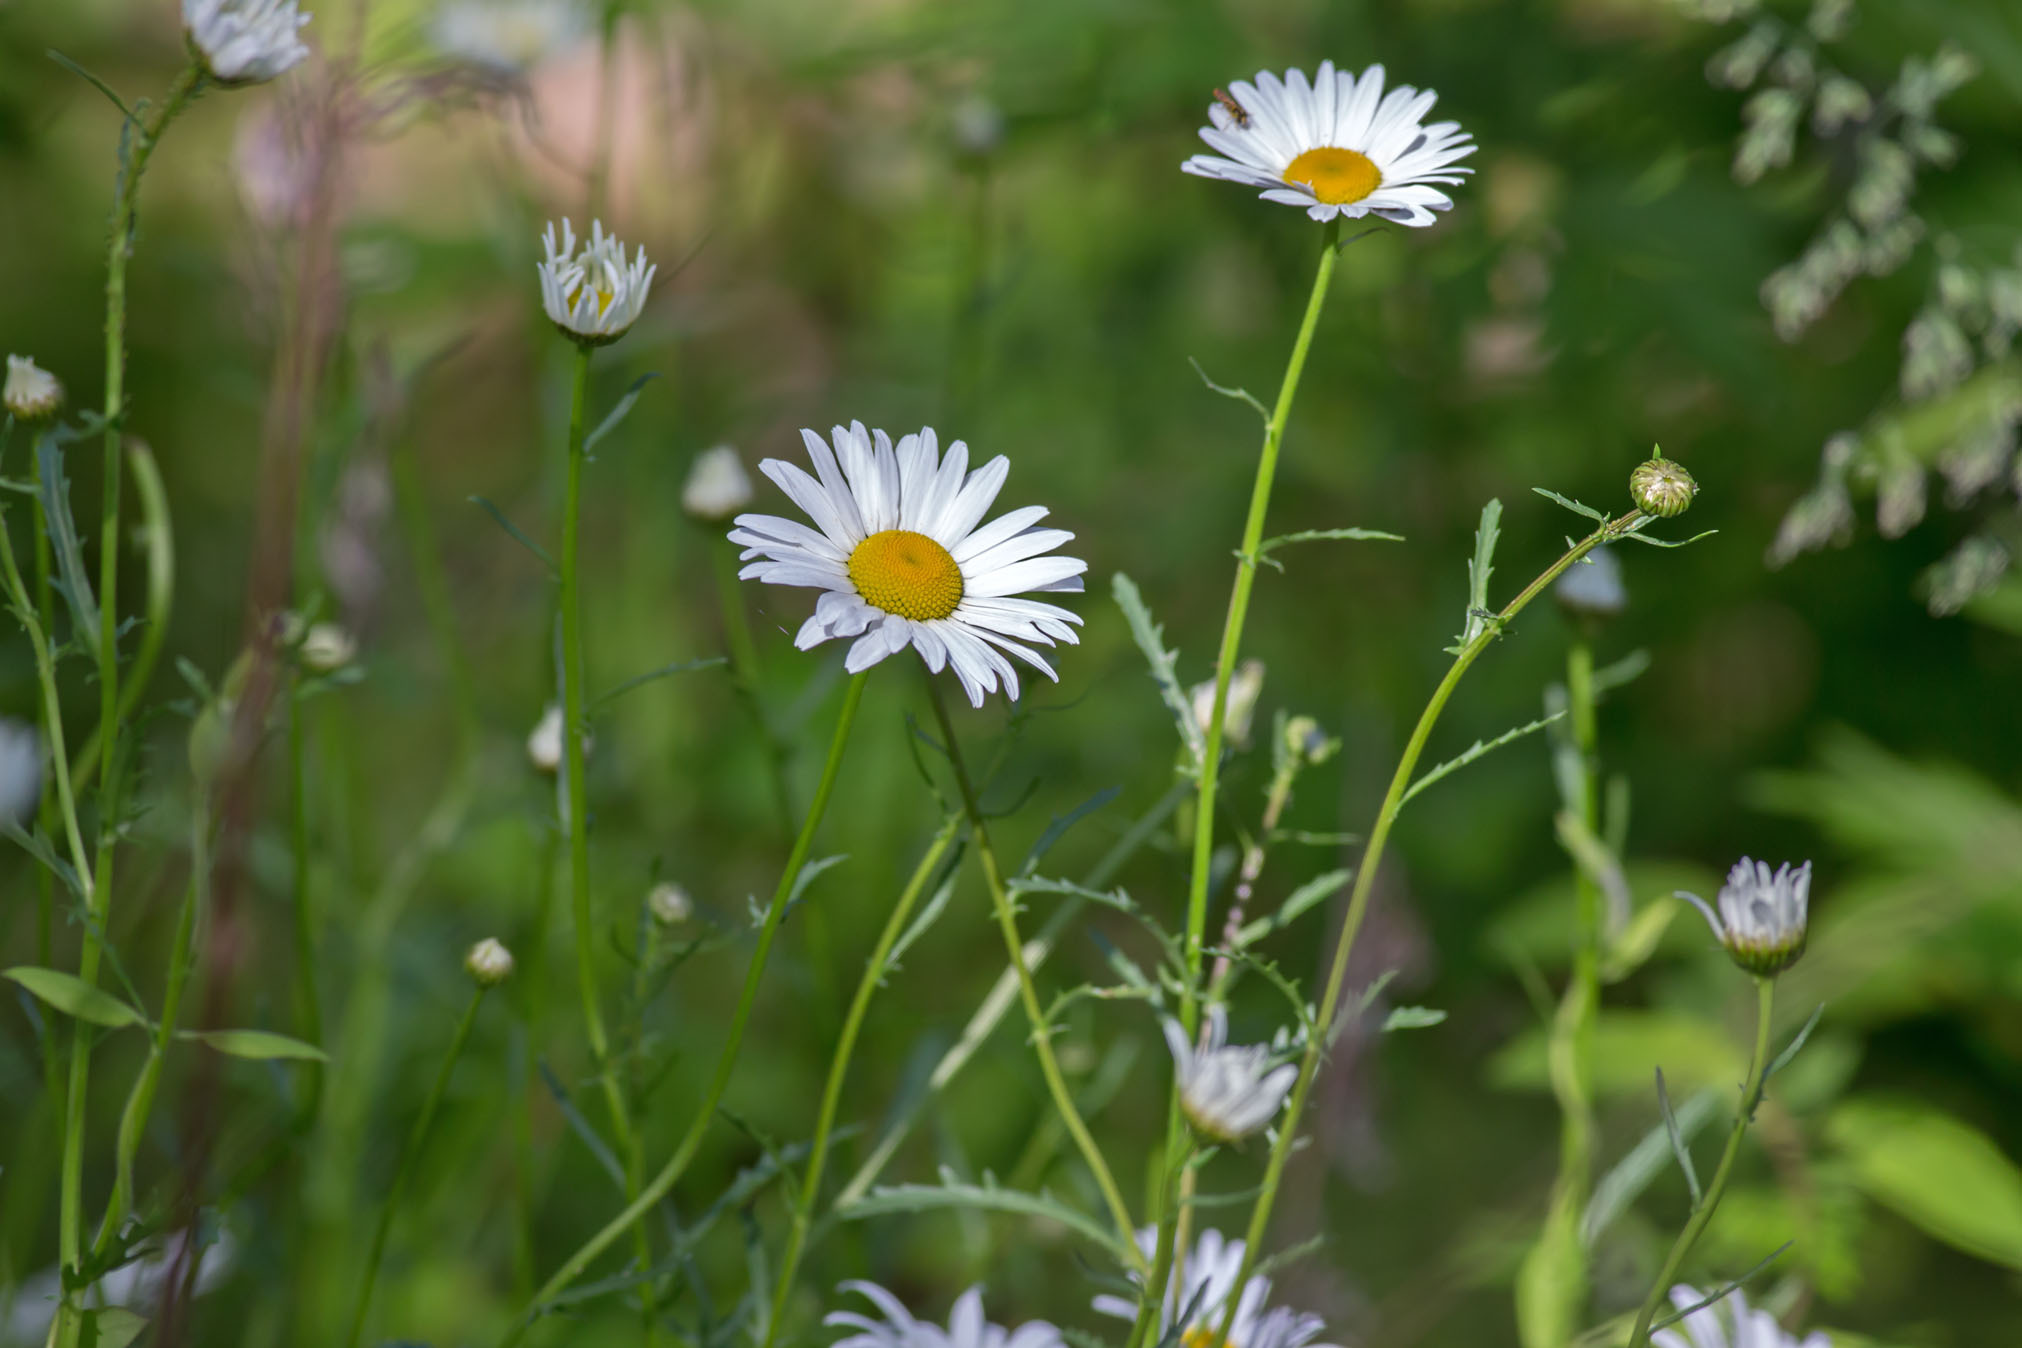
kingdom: Plantae
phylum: Tracheophyta
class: Magnoliopsida
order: Asterales
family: Asteraceae
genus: Leucanthemum
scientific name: Leucanthemum vulgare
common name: Oxeye daisy
